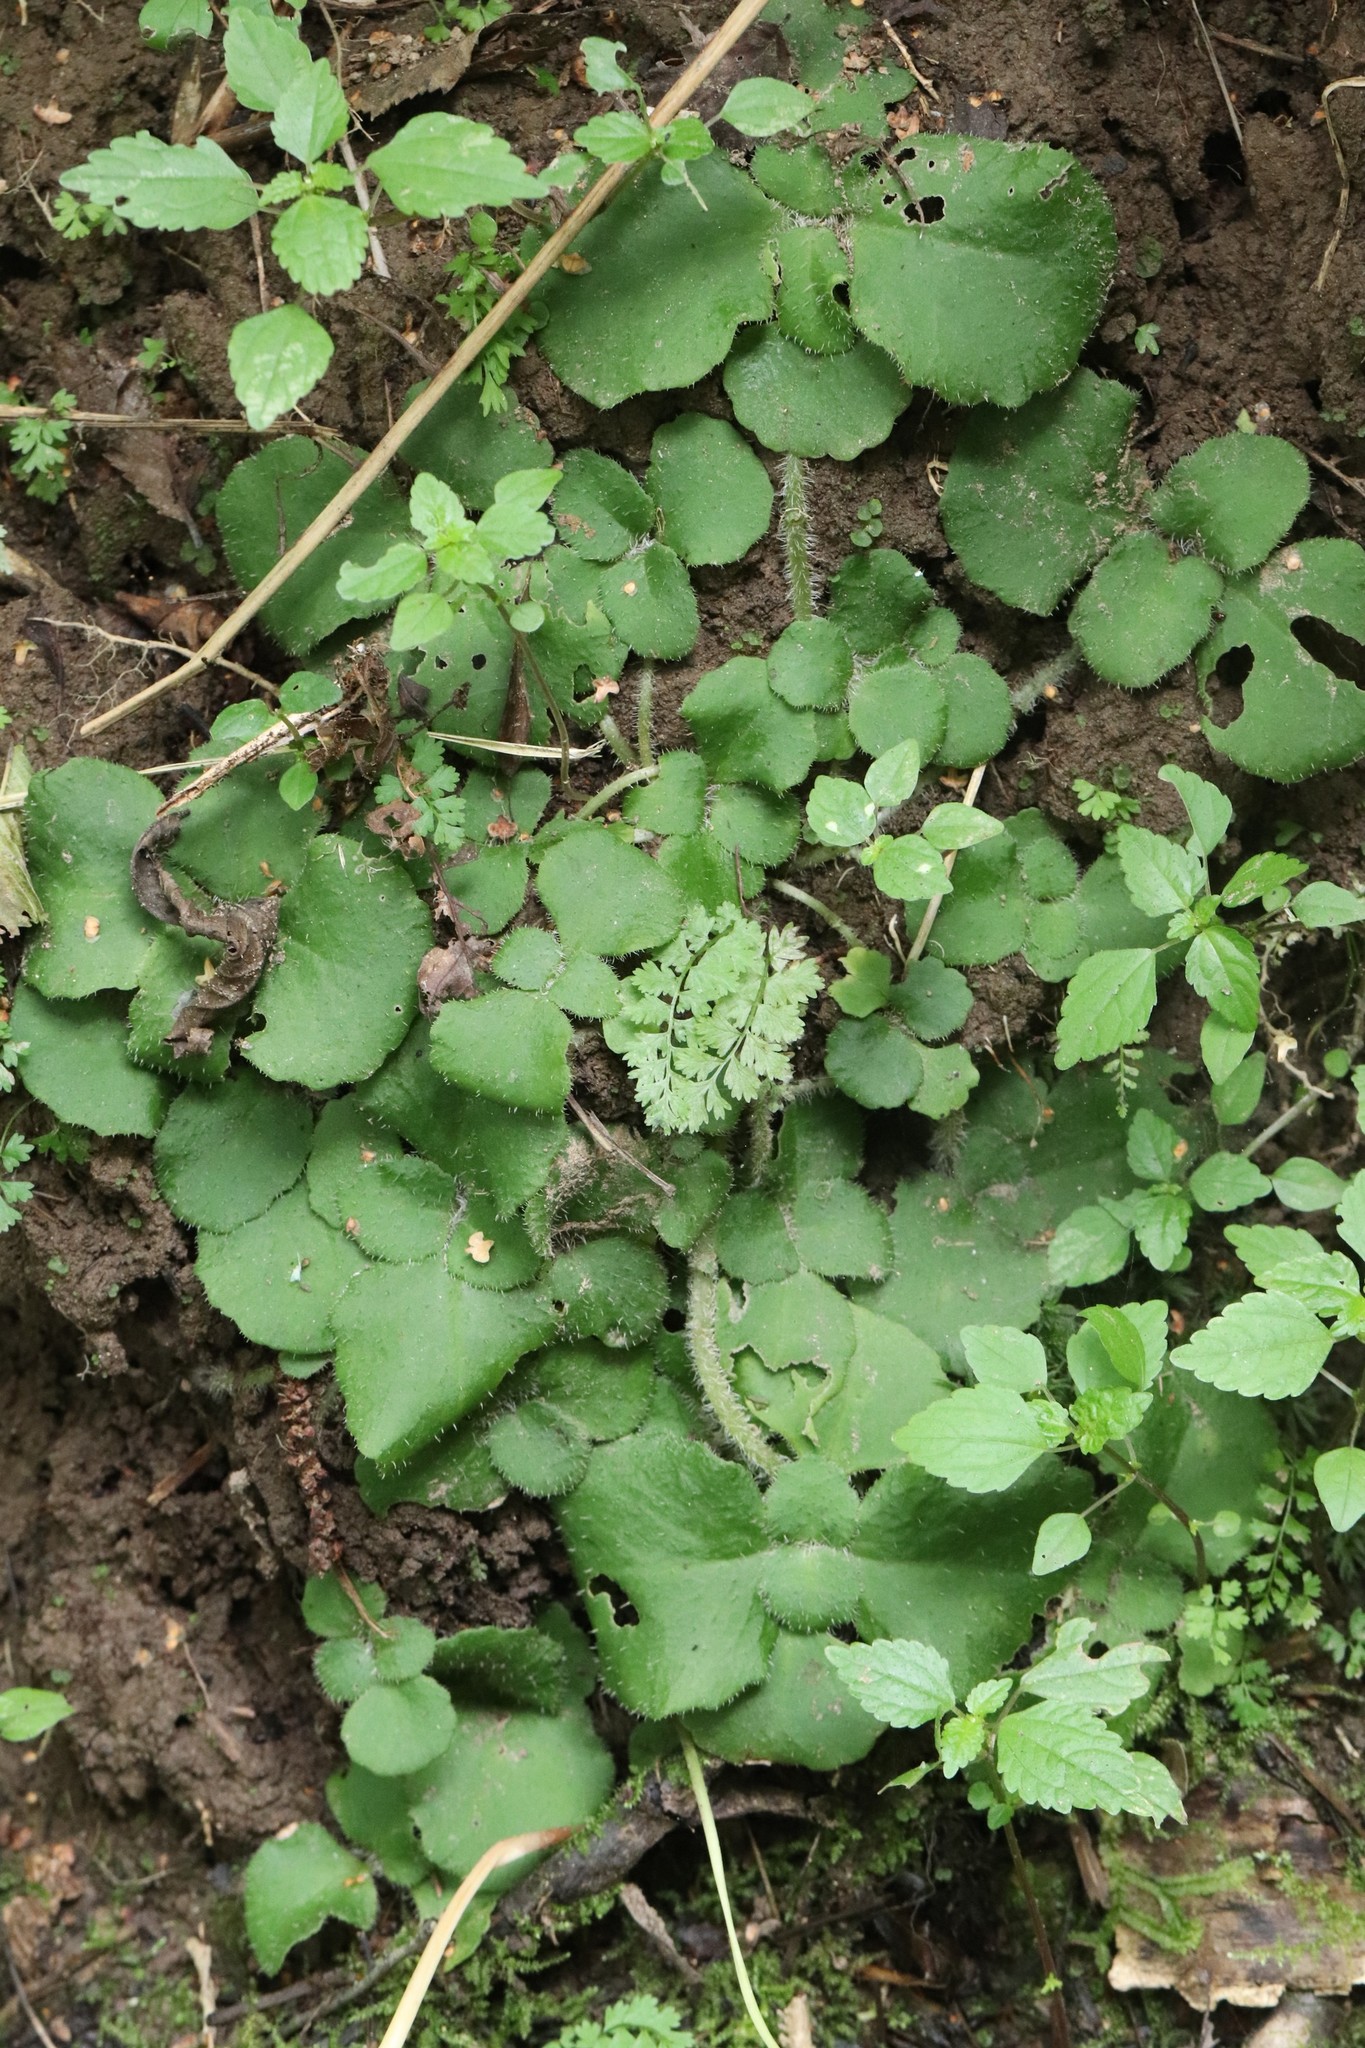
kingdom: Plantae
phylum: Tracheophyta
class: Magnoliopsida
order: Saxifragales
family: Saxifragaceae
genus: Chrysosplenium
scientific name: Chrysosplenium pilosum
